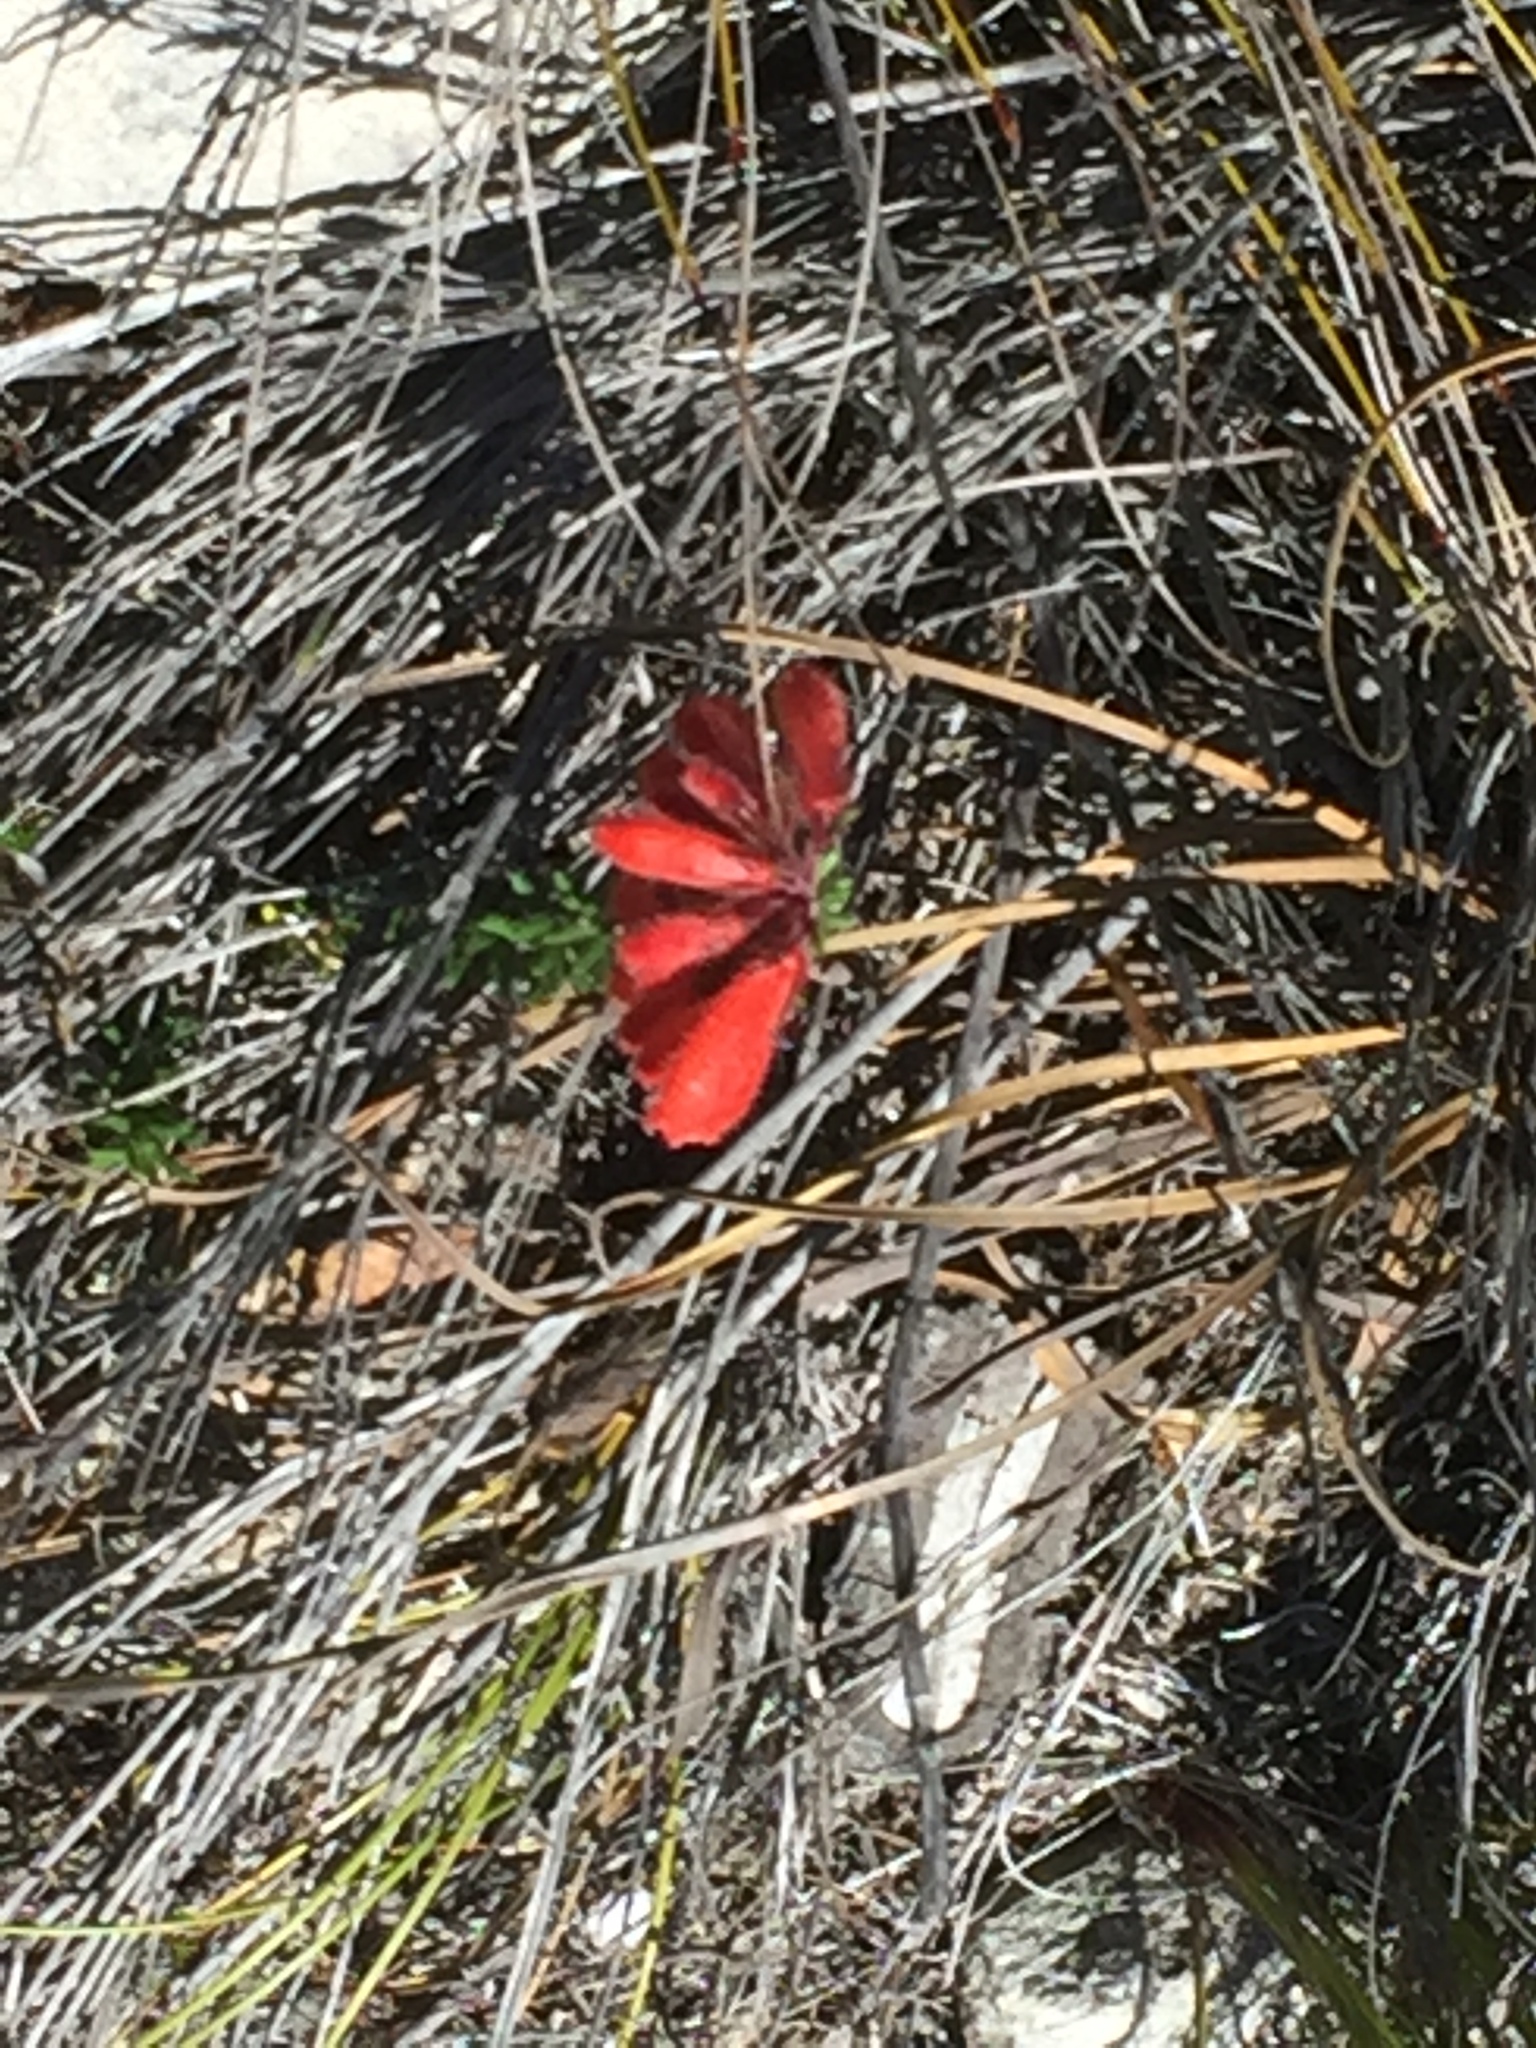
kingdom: Plantae
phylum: Tracheophyta
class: Magnoliopsida
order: Ericales
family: Ericaceae
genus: Erica
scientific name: Erica cerinthoides
